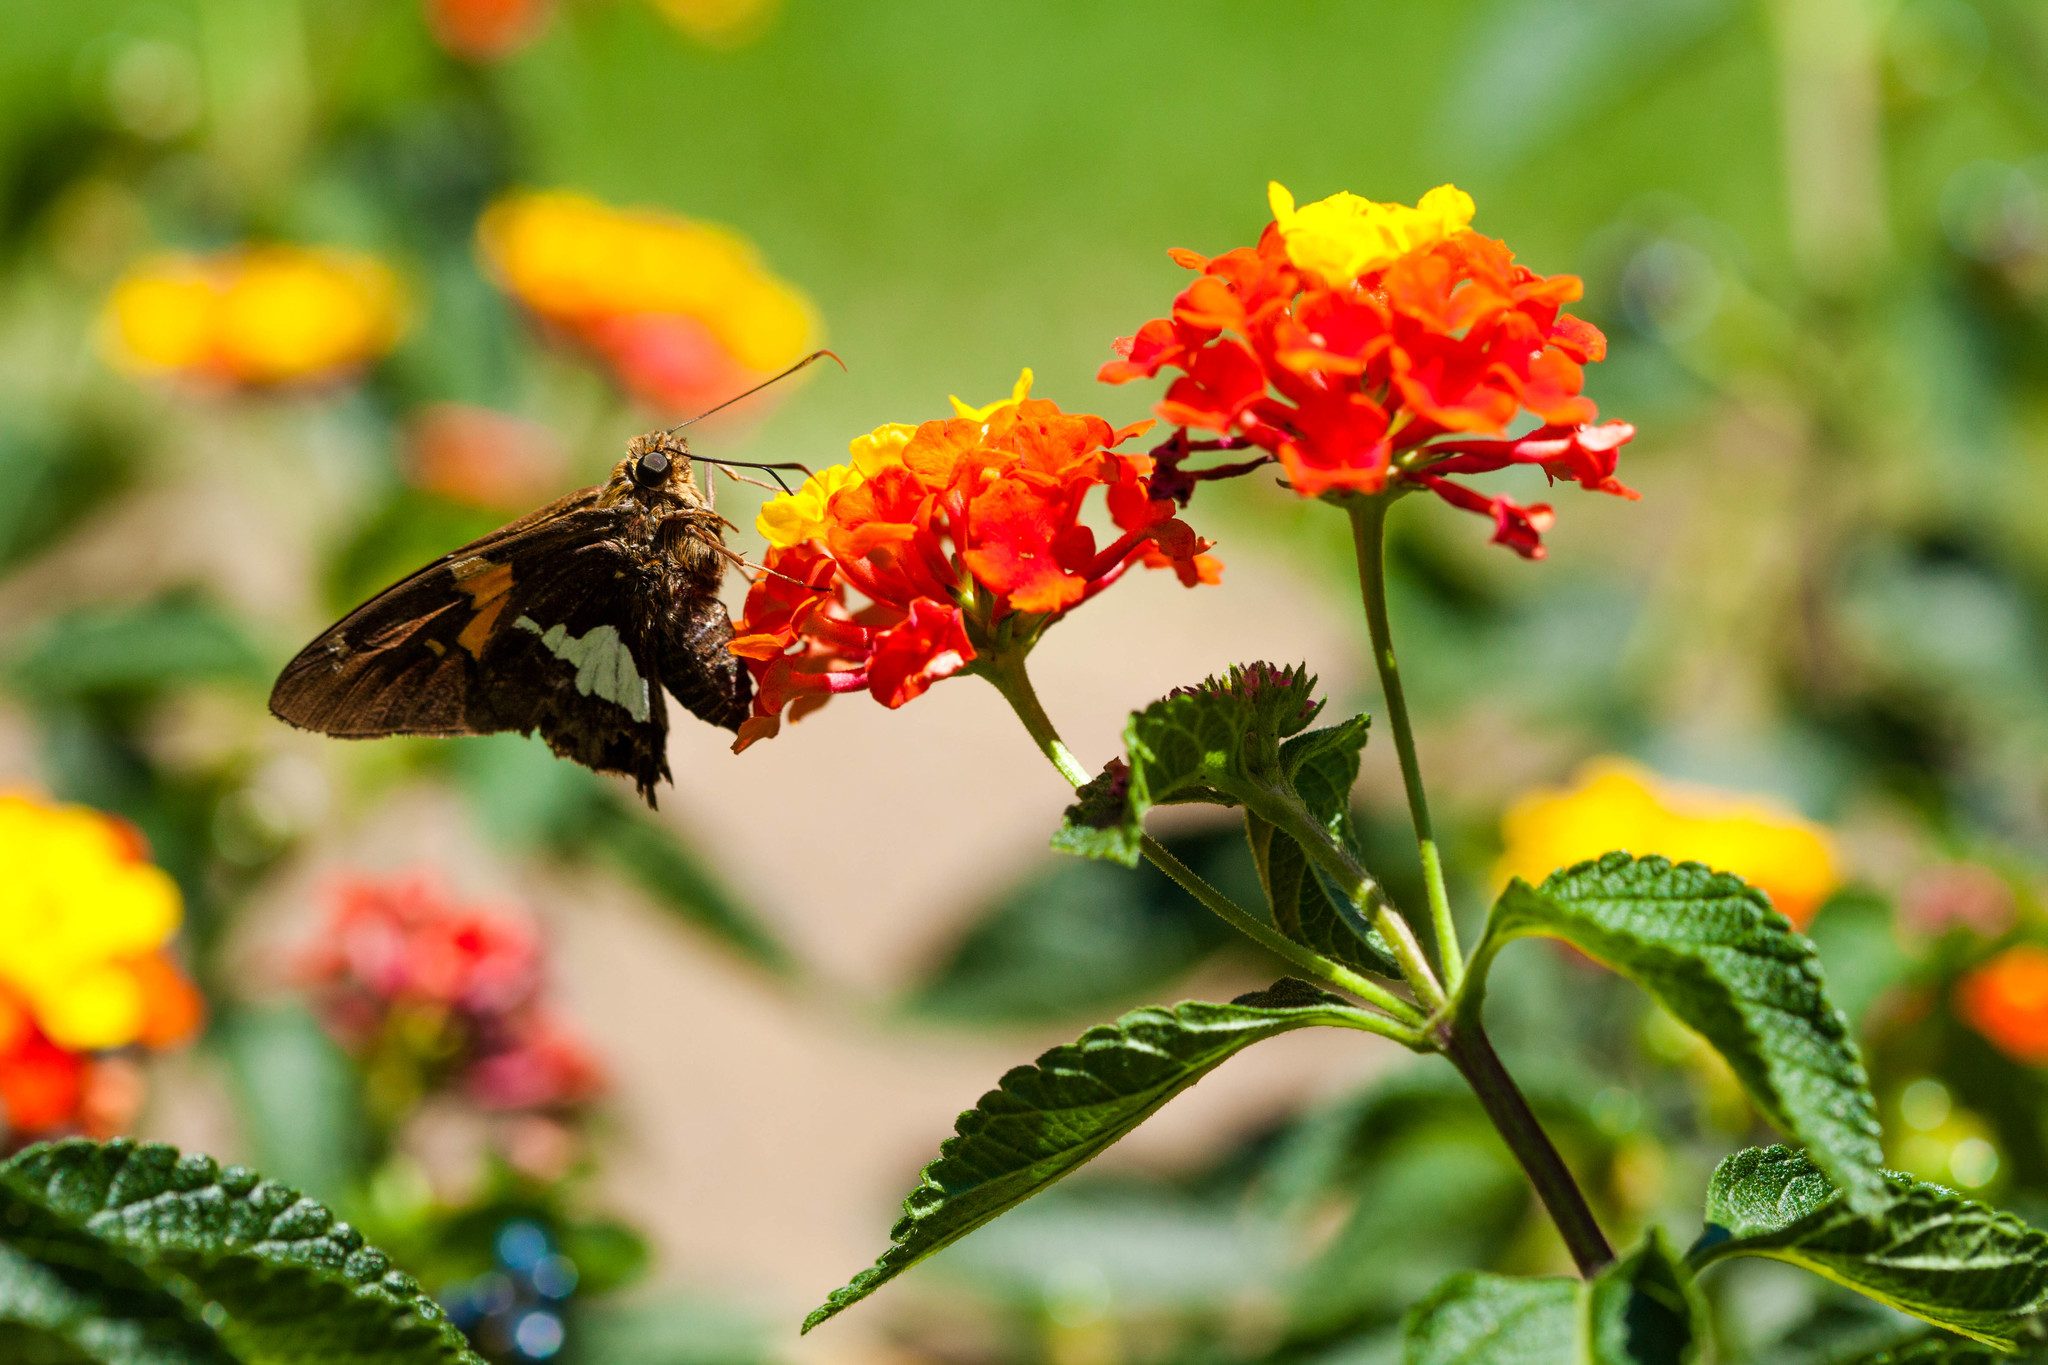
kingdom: Animalia
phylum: Arthropoda
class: Insecta
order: Lepidoptera
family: Hesperiidae
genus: Epargyreus
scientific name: Epargyreus clarus
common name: Silver-spotted skipper
